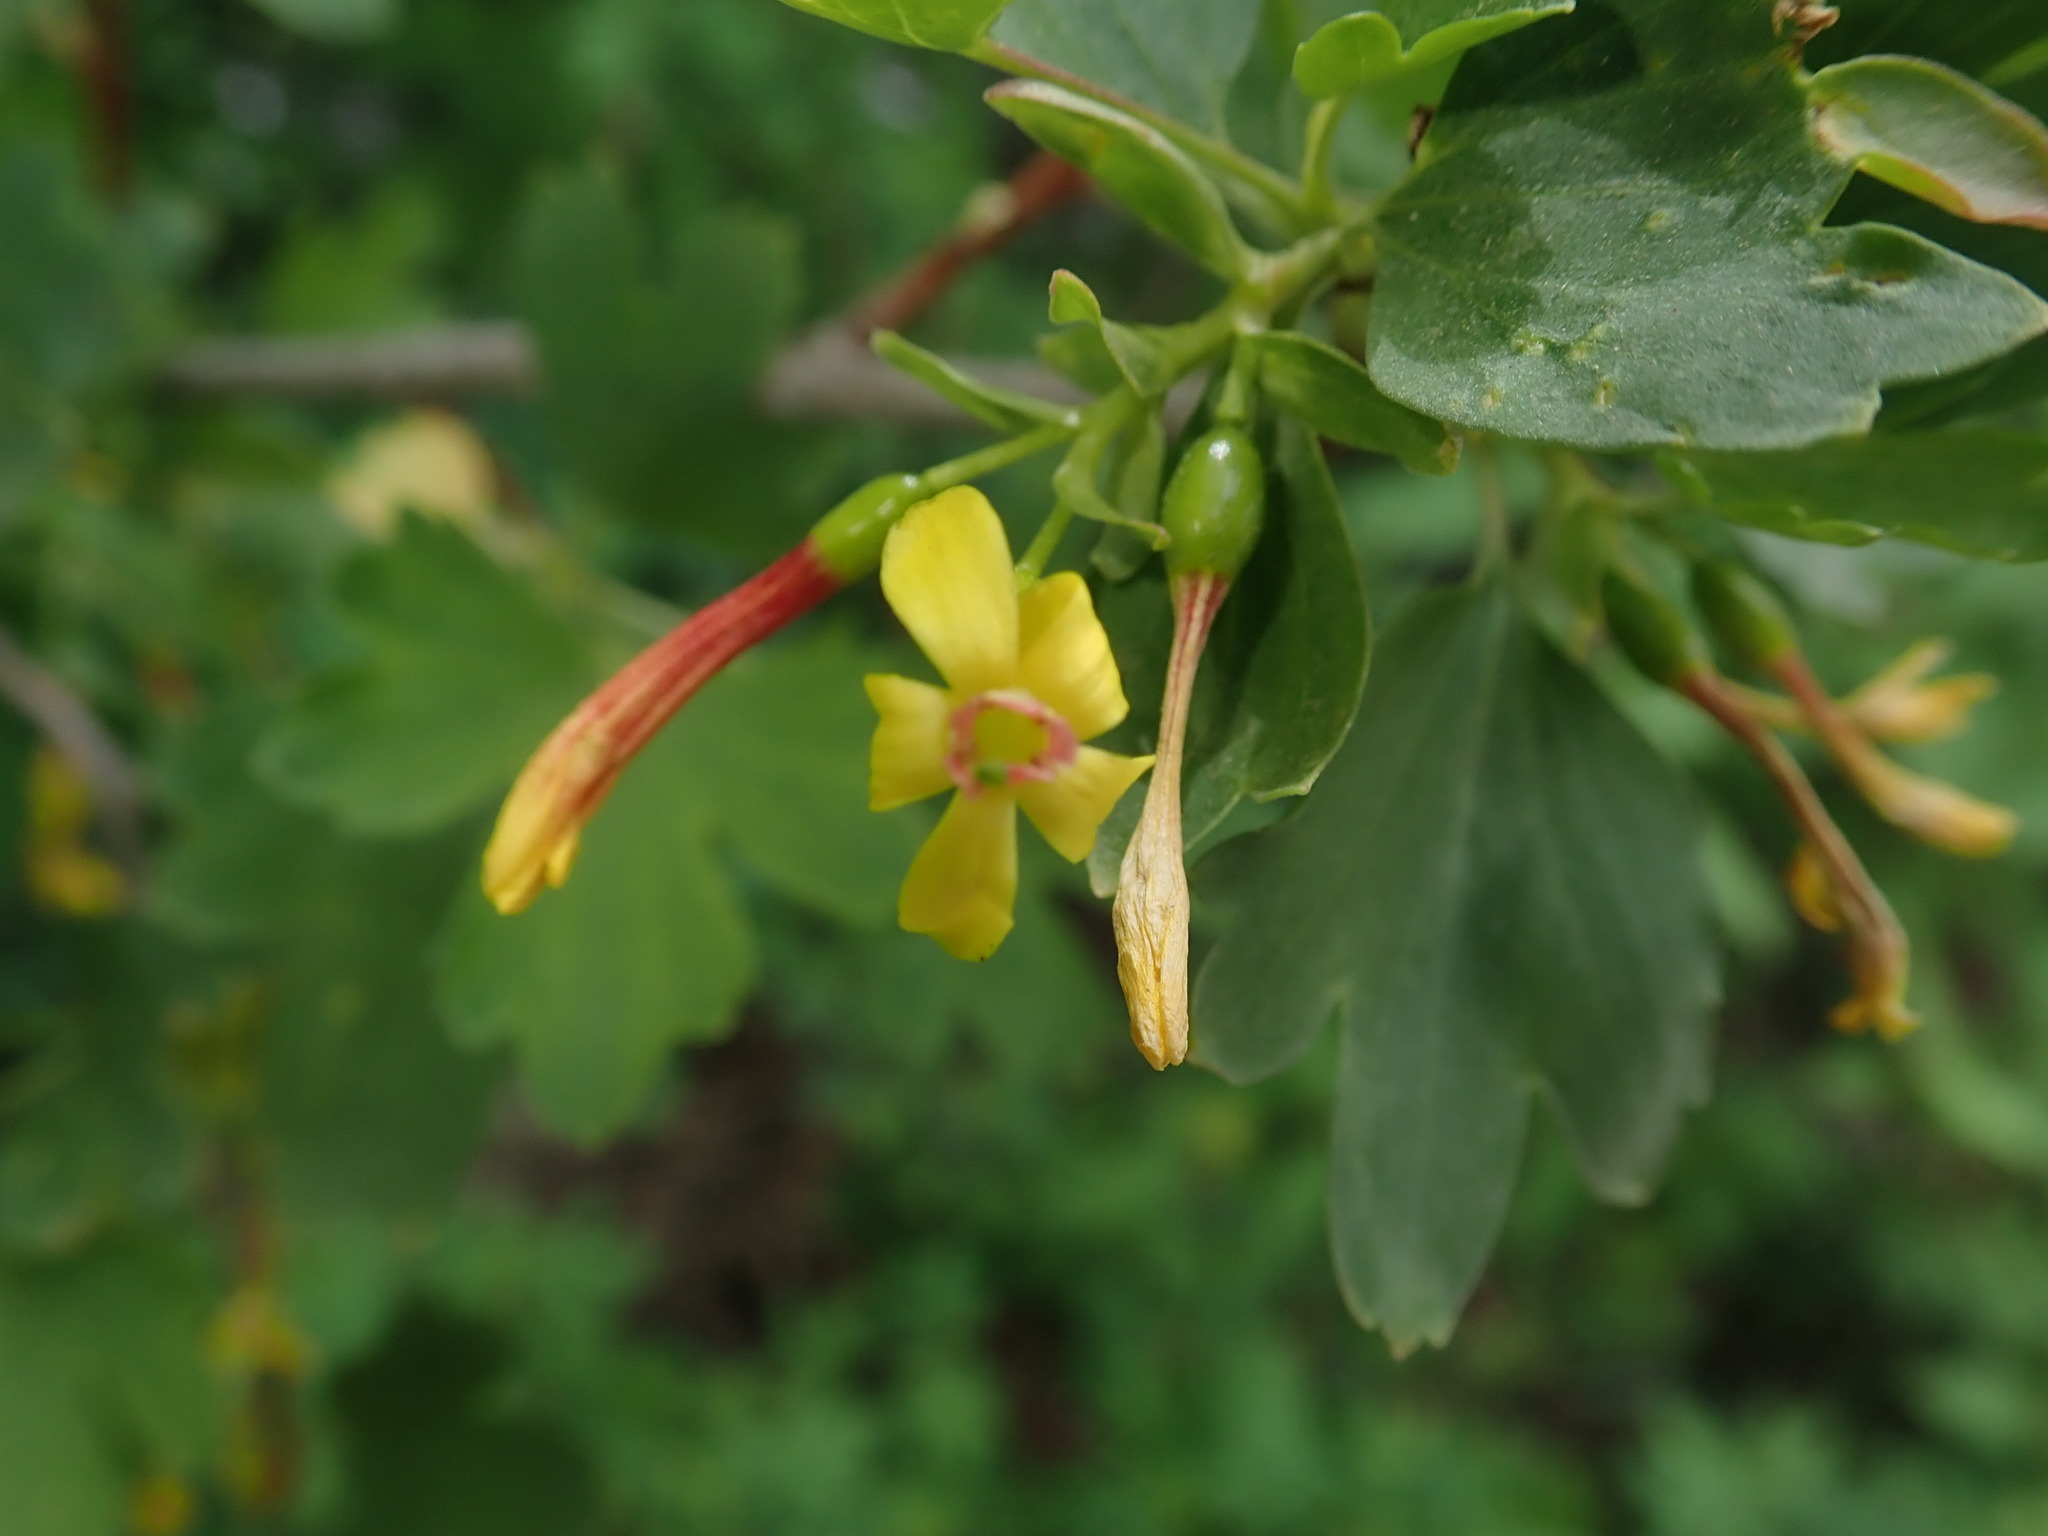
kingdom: Plantae
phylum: Tracheophyta
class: Magnoliopsida
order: Saxifragales
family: Grossulariaceae
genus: Ribes
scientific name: Ribes aureum
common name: Golden currant
